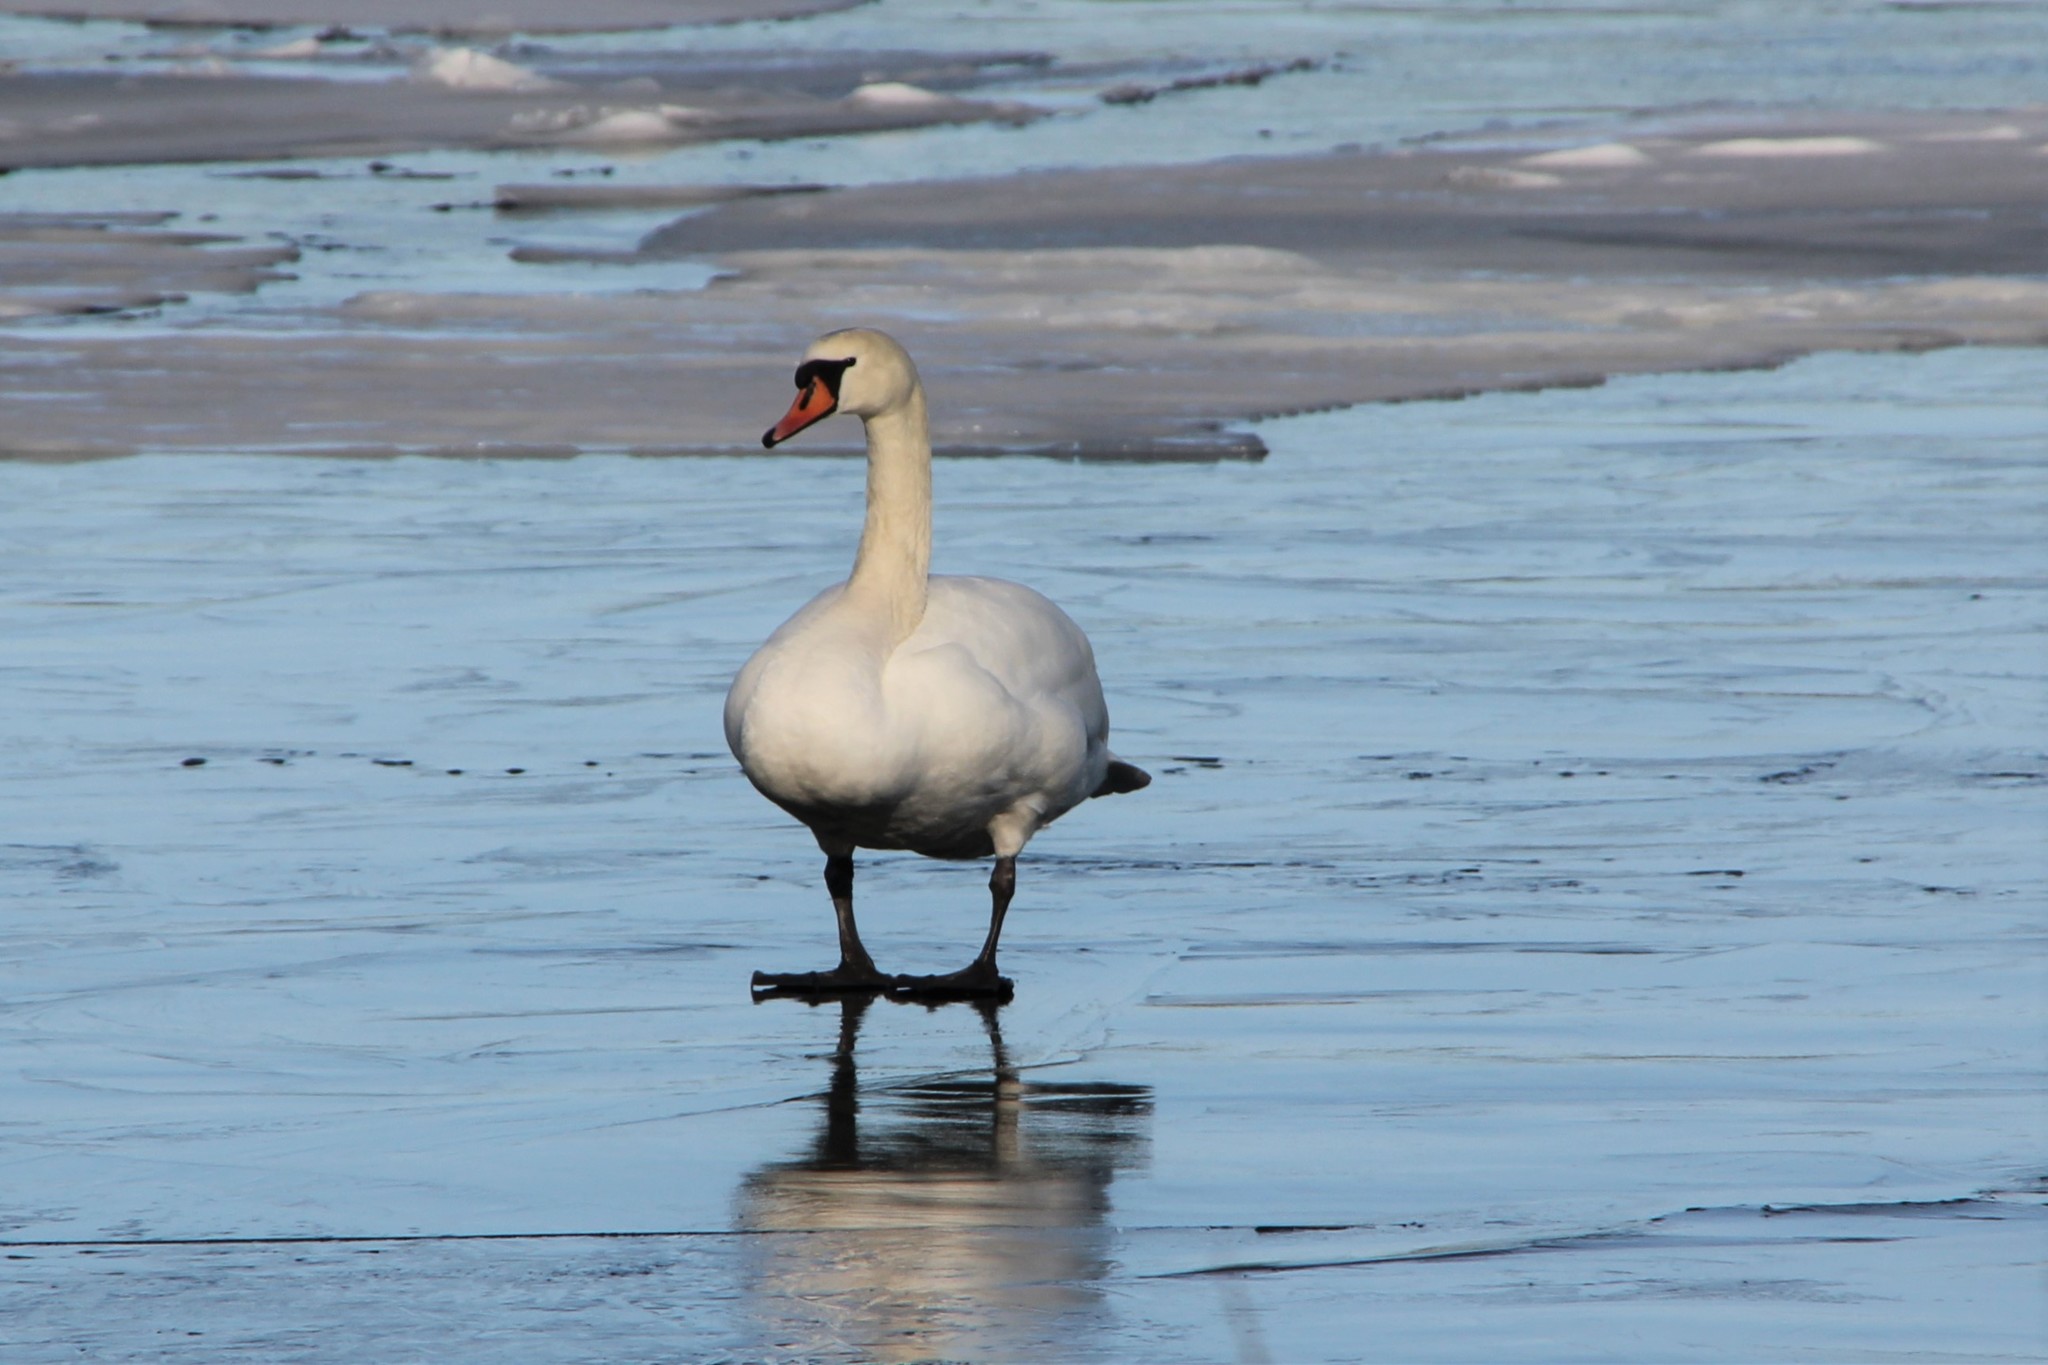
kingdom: Animalia
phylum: Chordata
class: Aves
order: Anseriformes
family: Anatidae
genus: Cygnus
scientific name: Cygnus olor
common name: Mute swan
